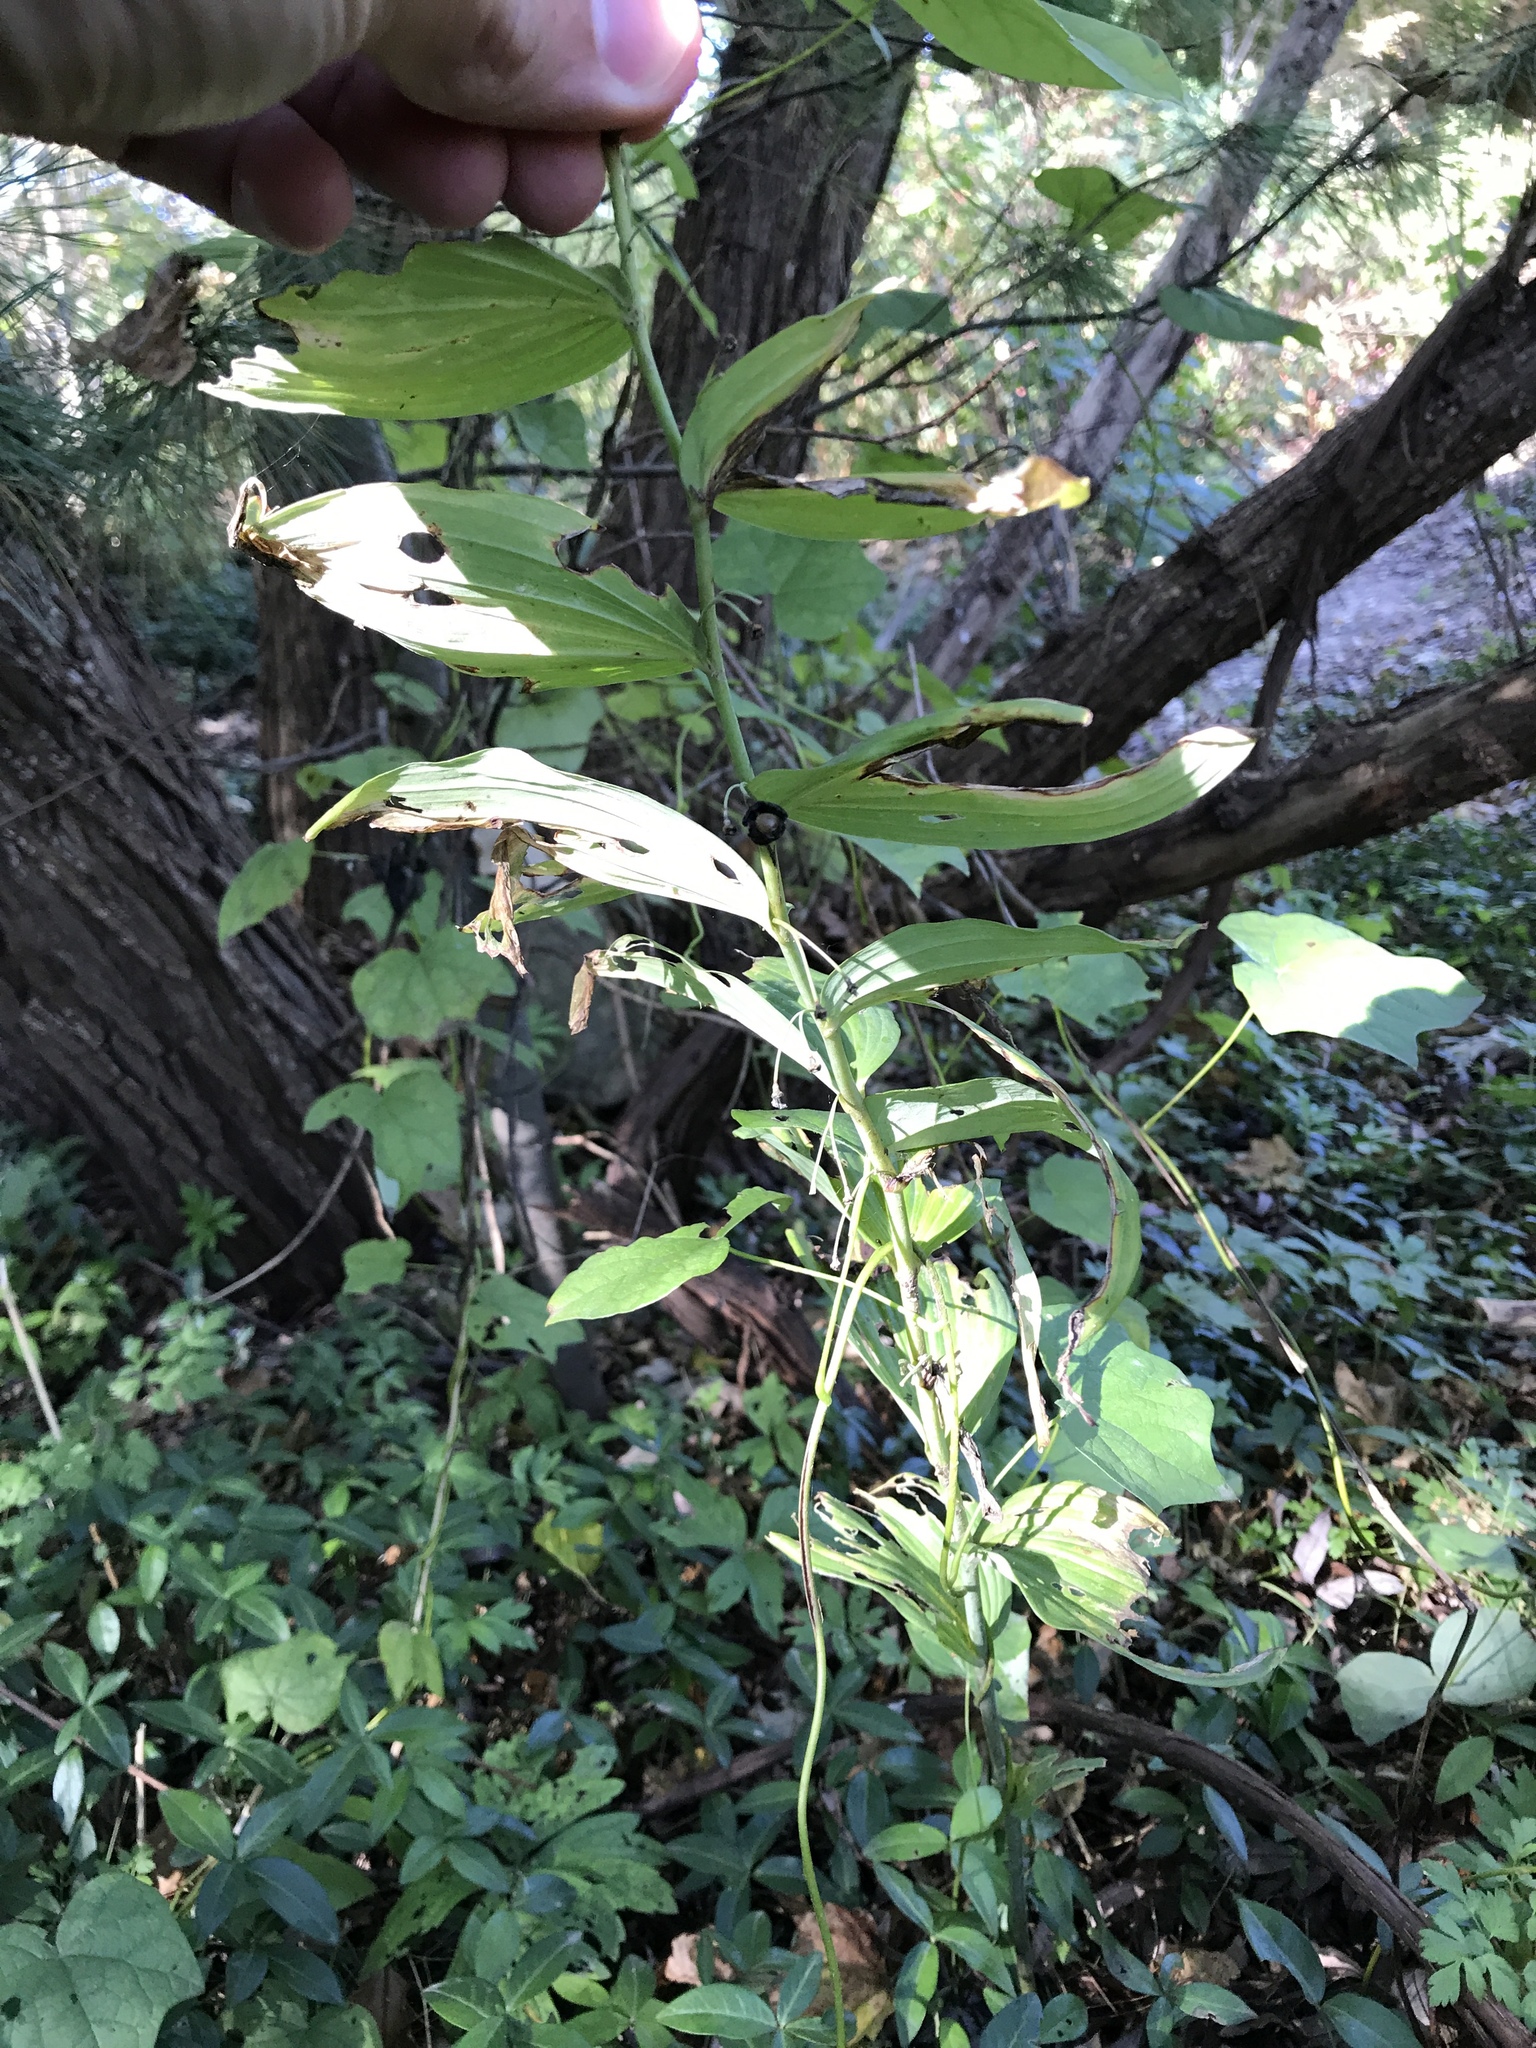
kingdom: Plantae
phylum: Tracheophyta
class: Liliopsida
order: Asparagales
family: Asparagaceae
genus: Polygonatum
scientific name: Polygonatum biflorum
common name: American solomon's-seal
